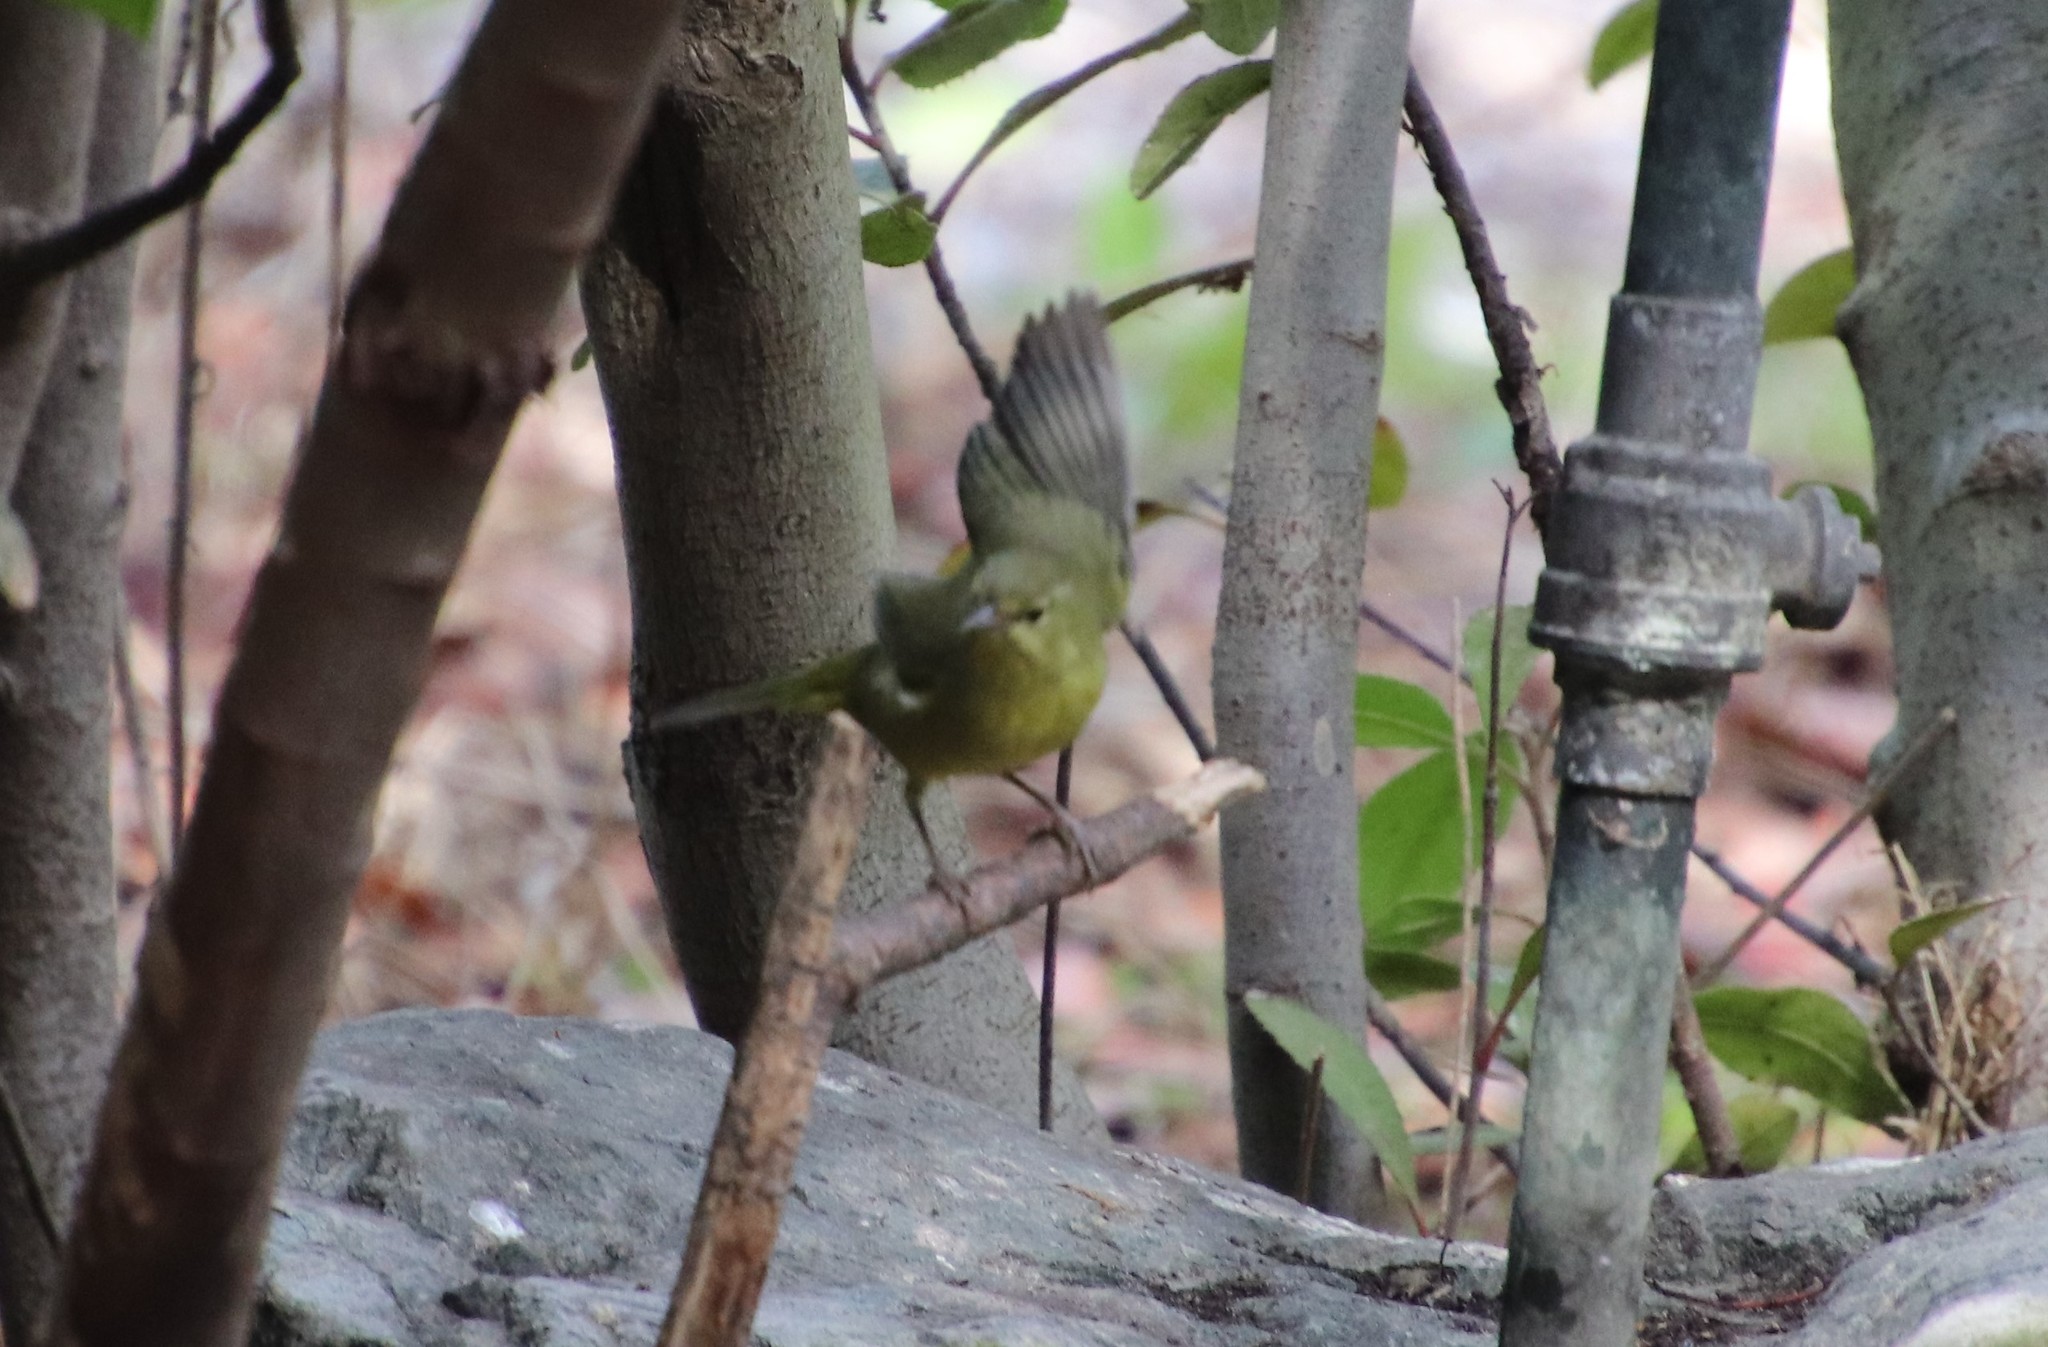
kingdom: Animalia
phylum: Chordata
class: Aves
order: Passeriformes
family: Parulidae
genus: Leiothlypis
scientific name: Leiothlypis celata
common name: Orange-crowned warbler
